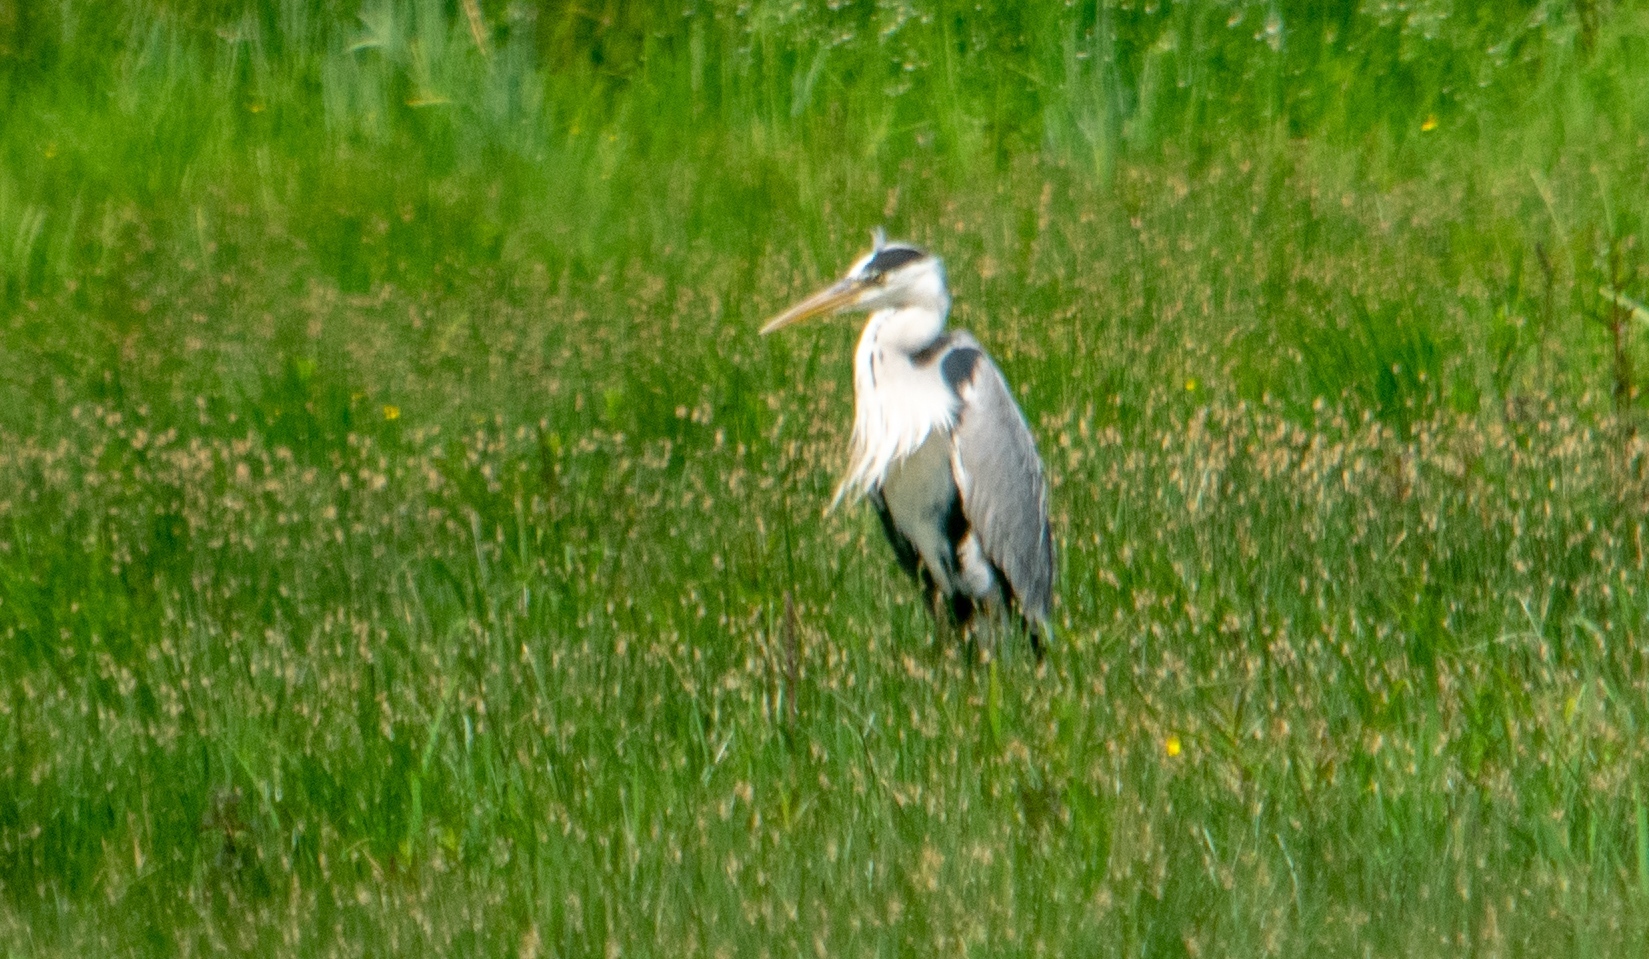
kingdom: Animalia
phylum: Chordata
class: Aves
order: Pelecaniformes
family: Ardeidae
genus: Ardea
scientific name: Ardea cinerea
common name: Grey heron
